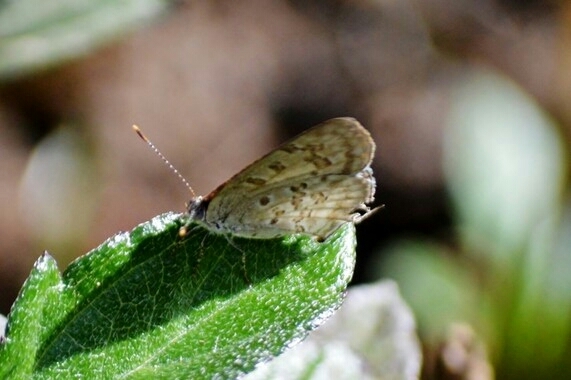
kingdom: Animalia
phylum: Arthropoda
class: Insecta
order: Lepidoptera
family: Lycaenidae
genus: Thecla
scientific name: Thecla una
